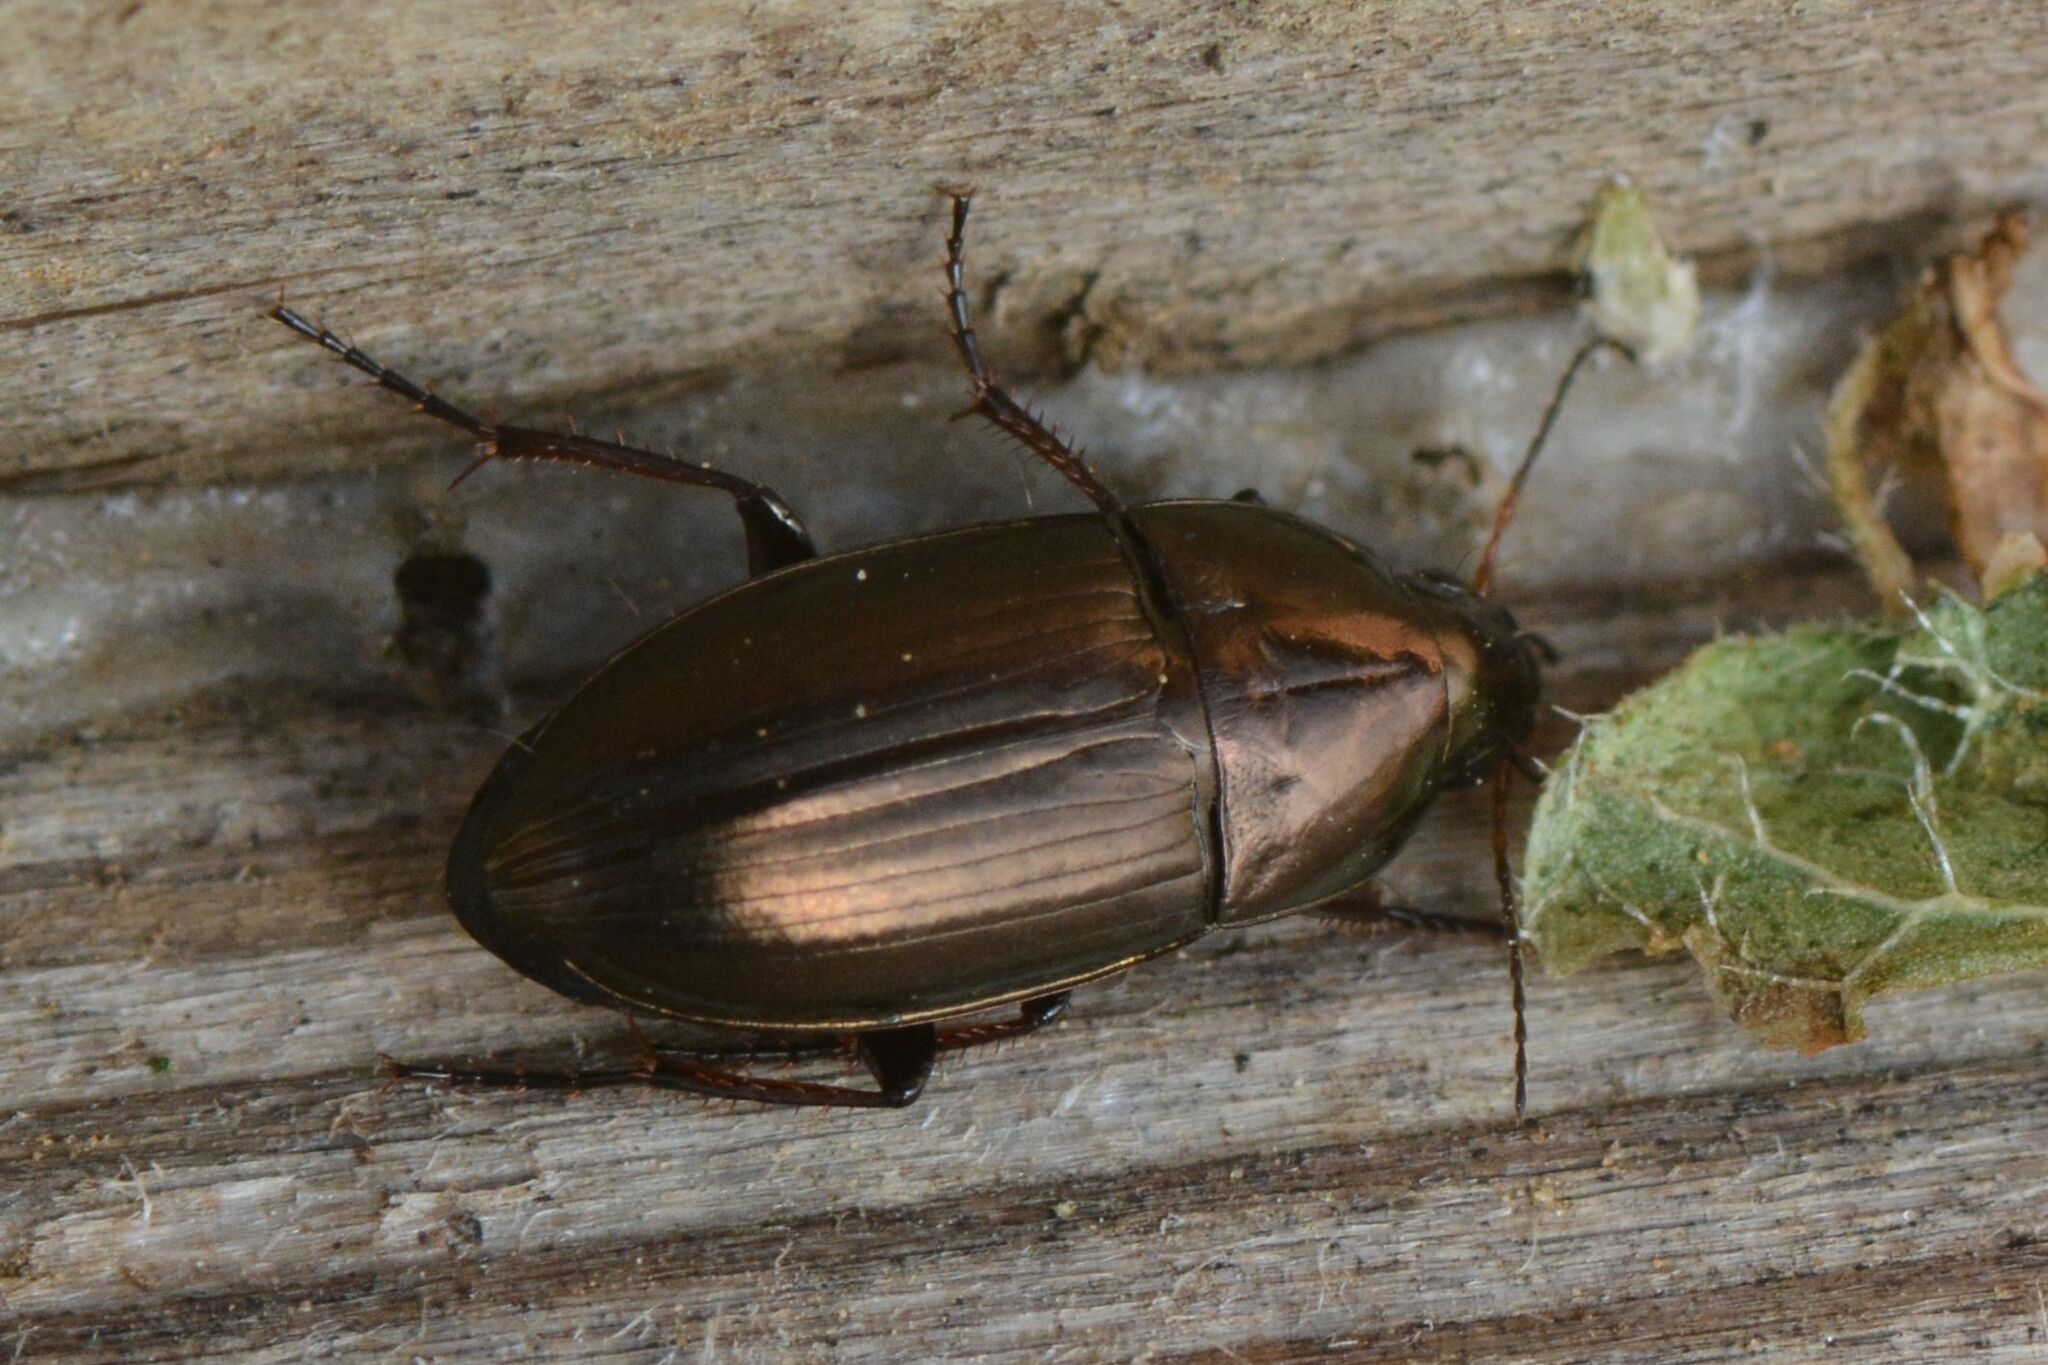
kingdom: Animalia
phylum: Arthropoda
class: Insecta
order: Coleoptera
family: Carabidae
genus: Amara
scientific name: Amara aenea
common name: Common sun beetle
